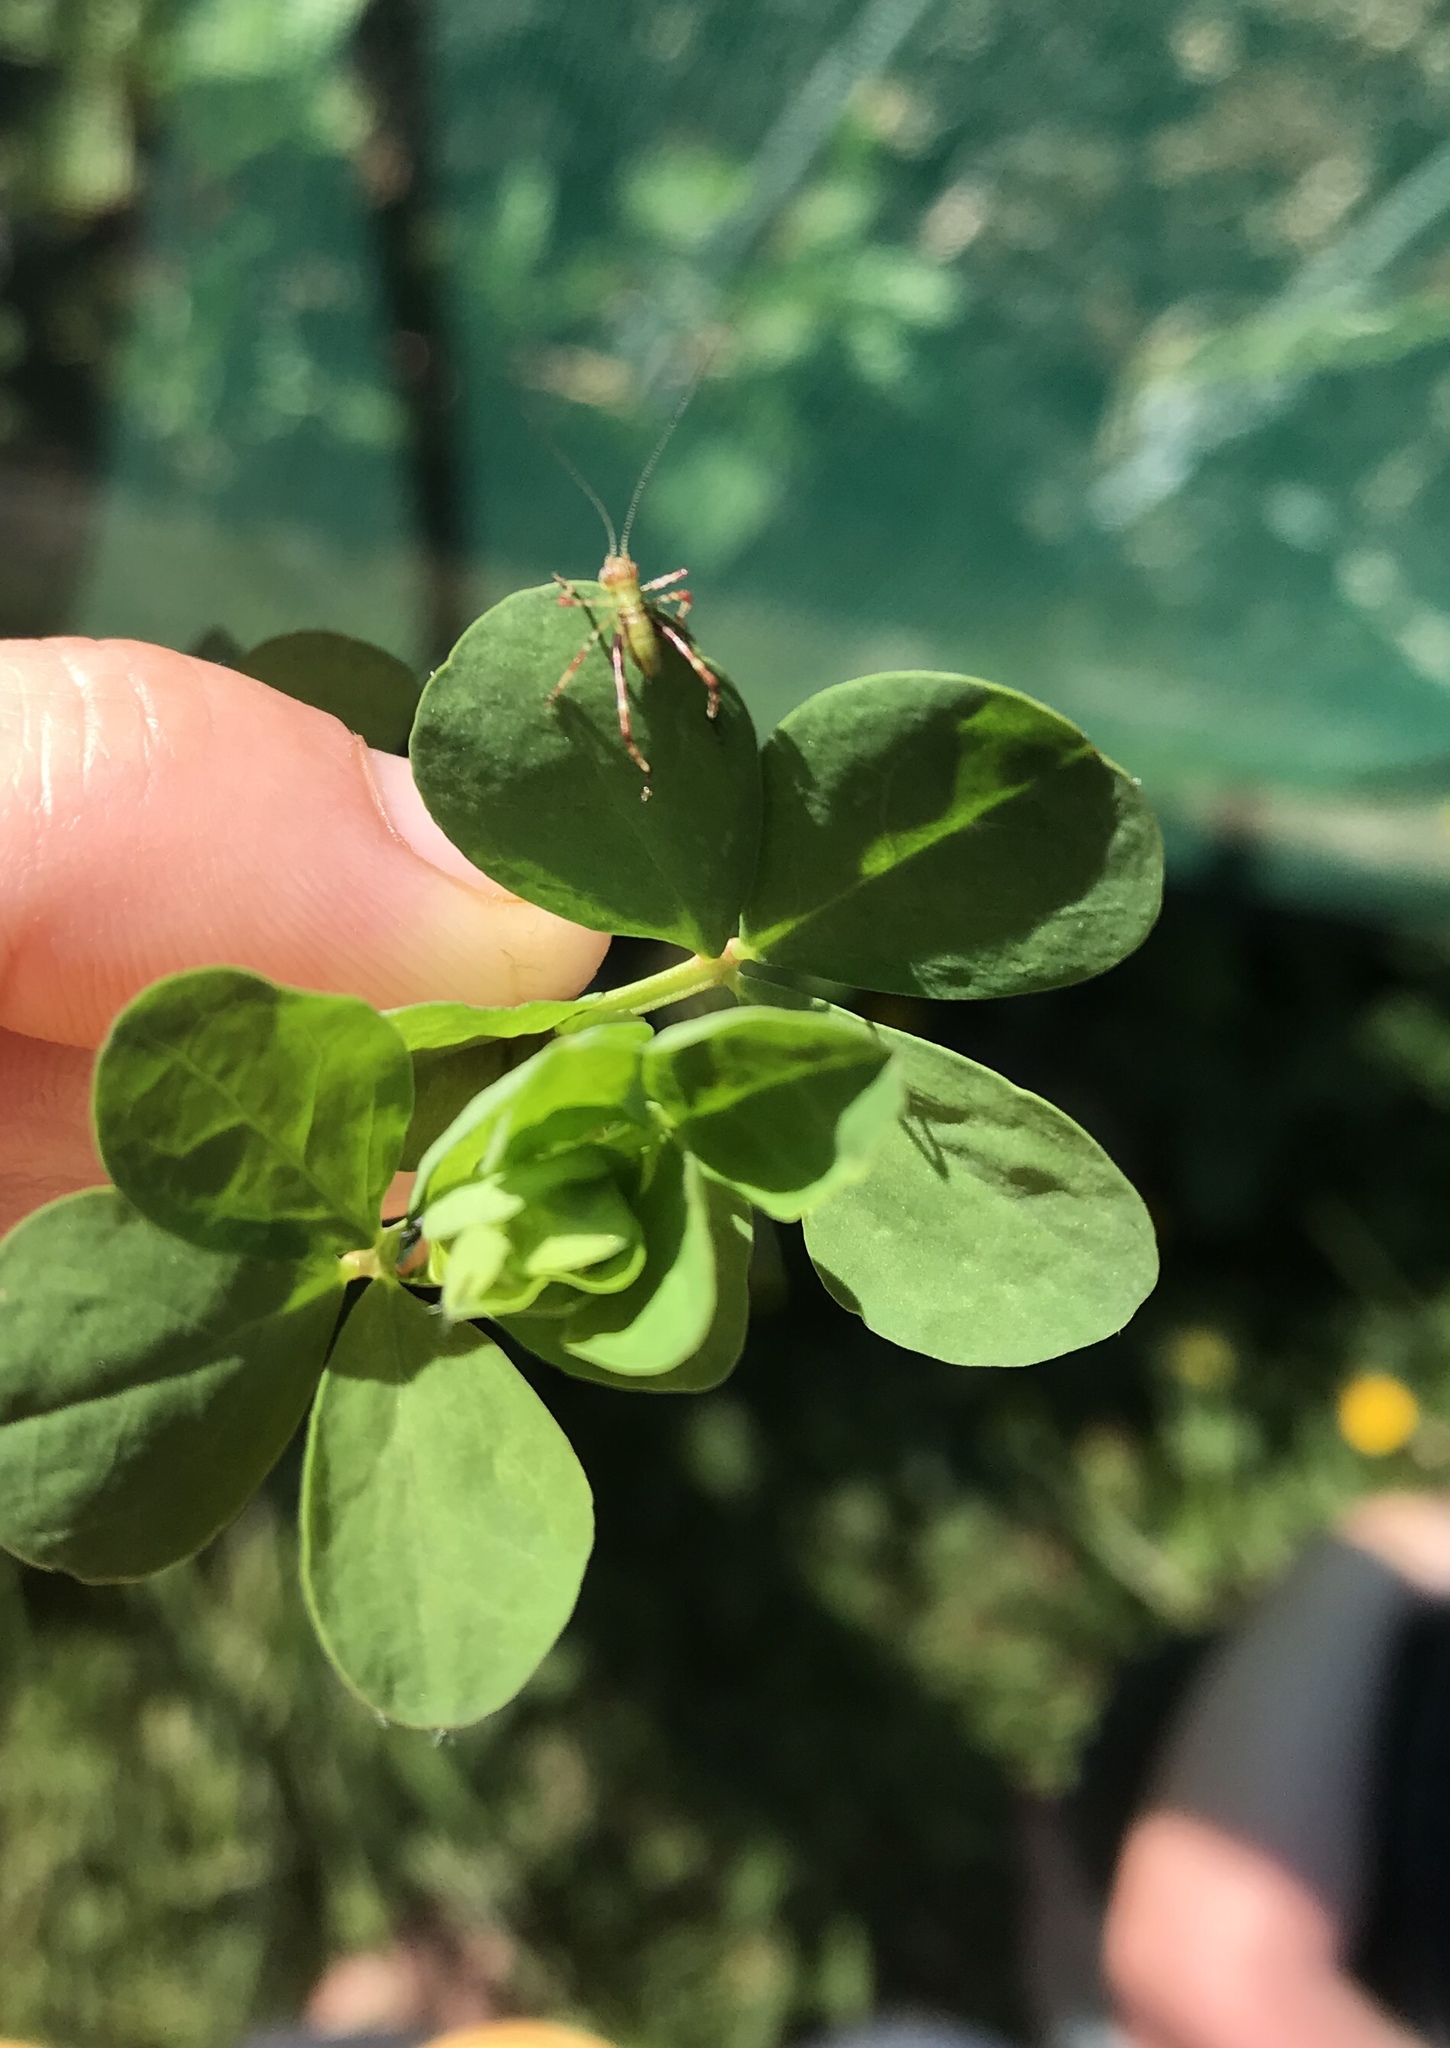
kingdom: Animalia
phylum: Arthropoda
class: Insecta
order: Orthoptera
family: Tettigoniidae
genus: Caedicia
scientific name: Caedicia simplex
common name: Common garden katydid
